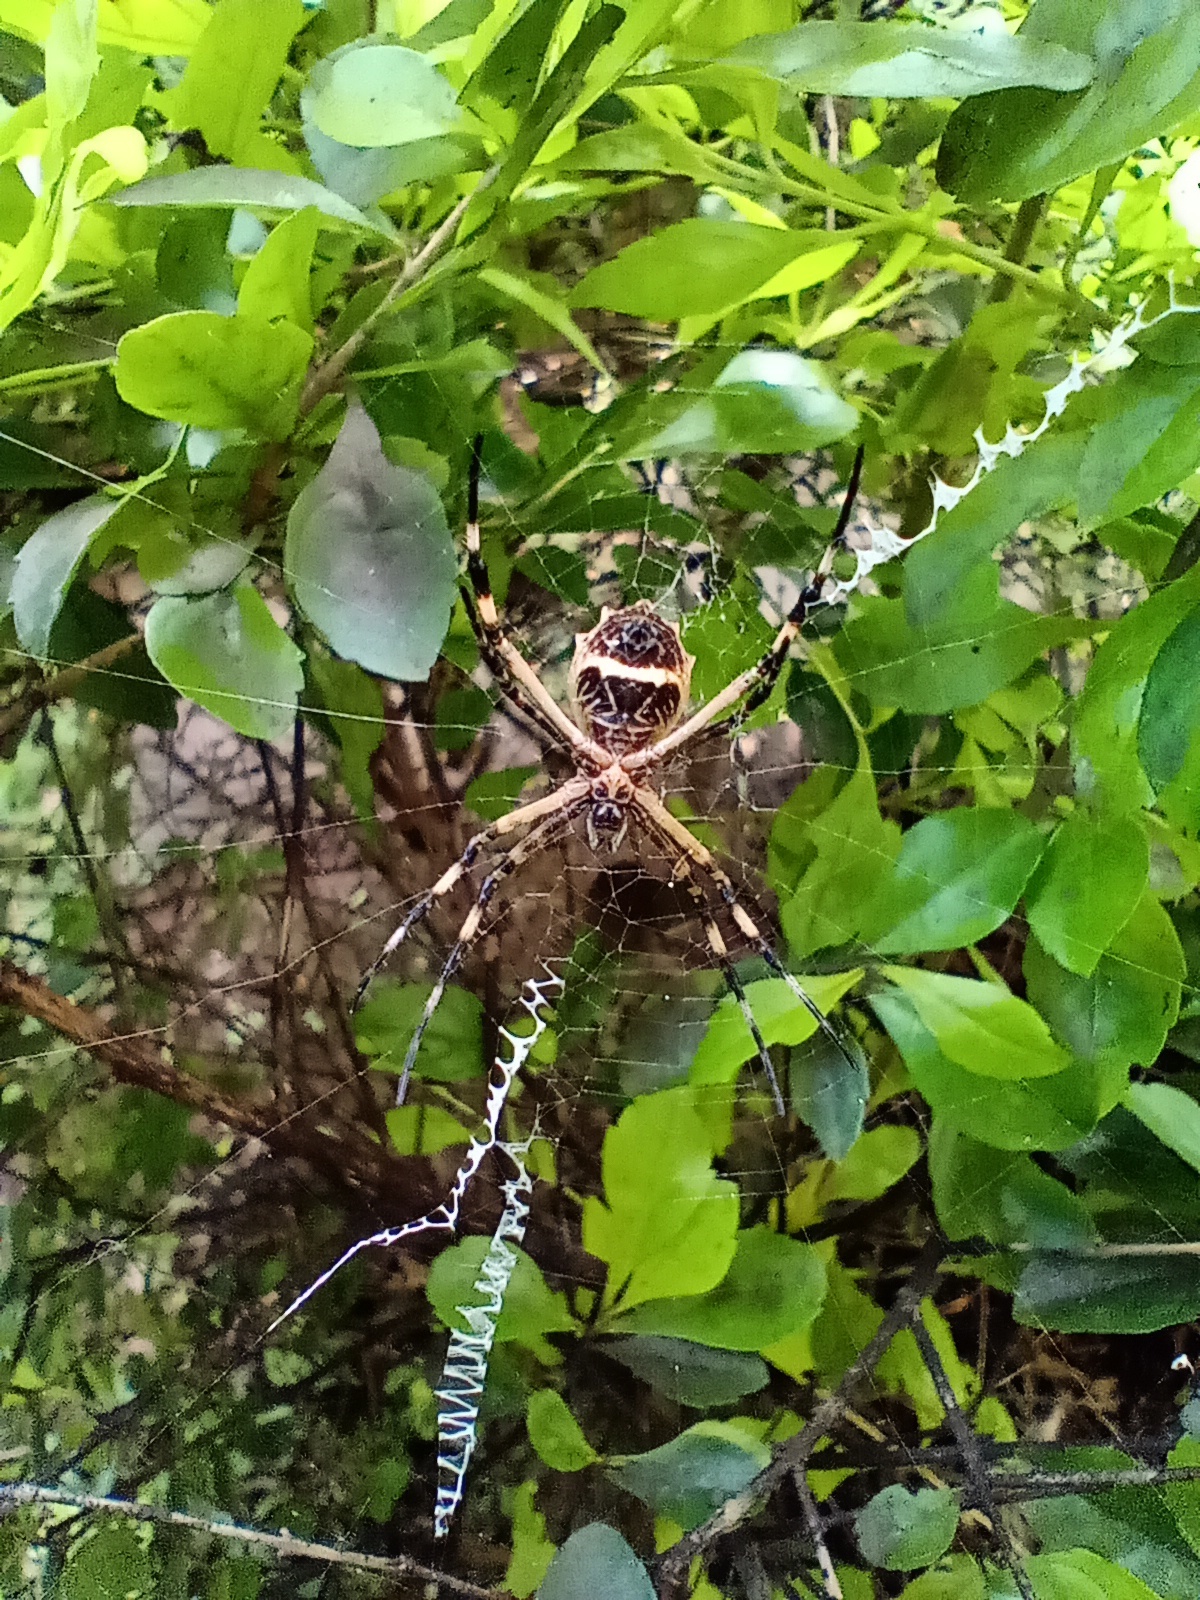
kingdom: Animalia
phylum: Arthropoda
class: Arachnida
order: Araneae
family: Araneidae
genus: Argiope
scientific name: Argiope argentata
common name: Orb weavers
